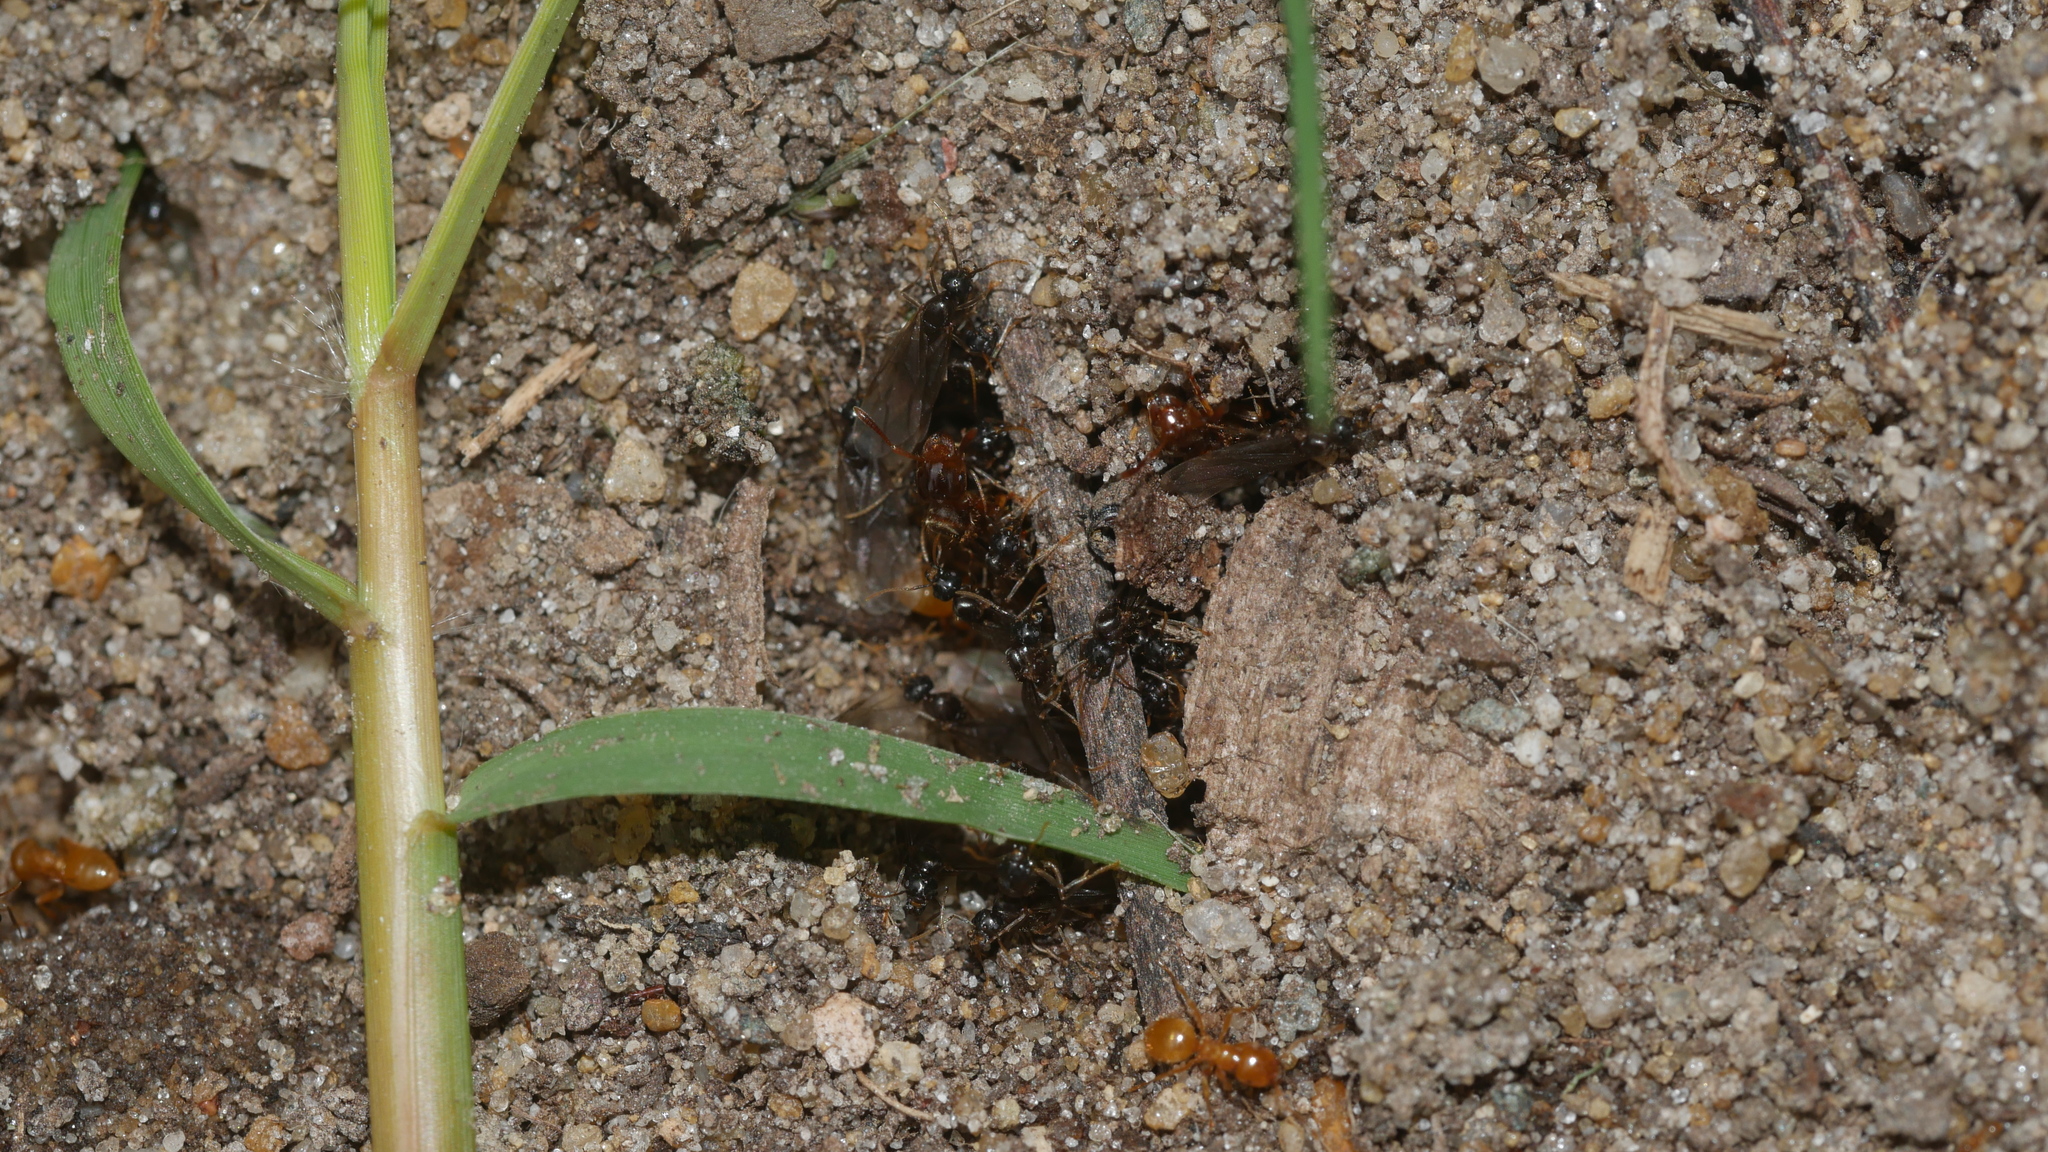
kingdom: Animalia
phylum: Arthropoda
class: Insecta
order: Hymenoptera
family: Formicidae
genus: Lasius
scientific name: Lasius claviger
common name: Common citronella ant
